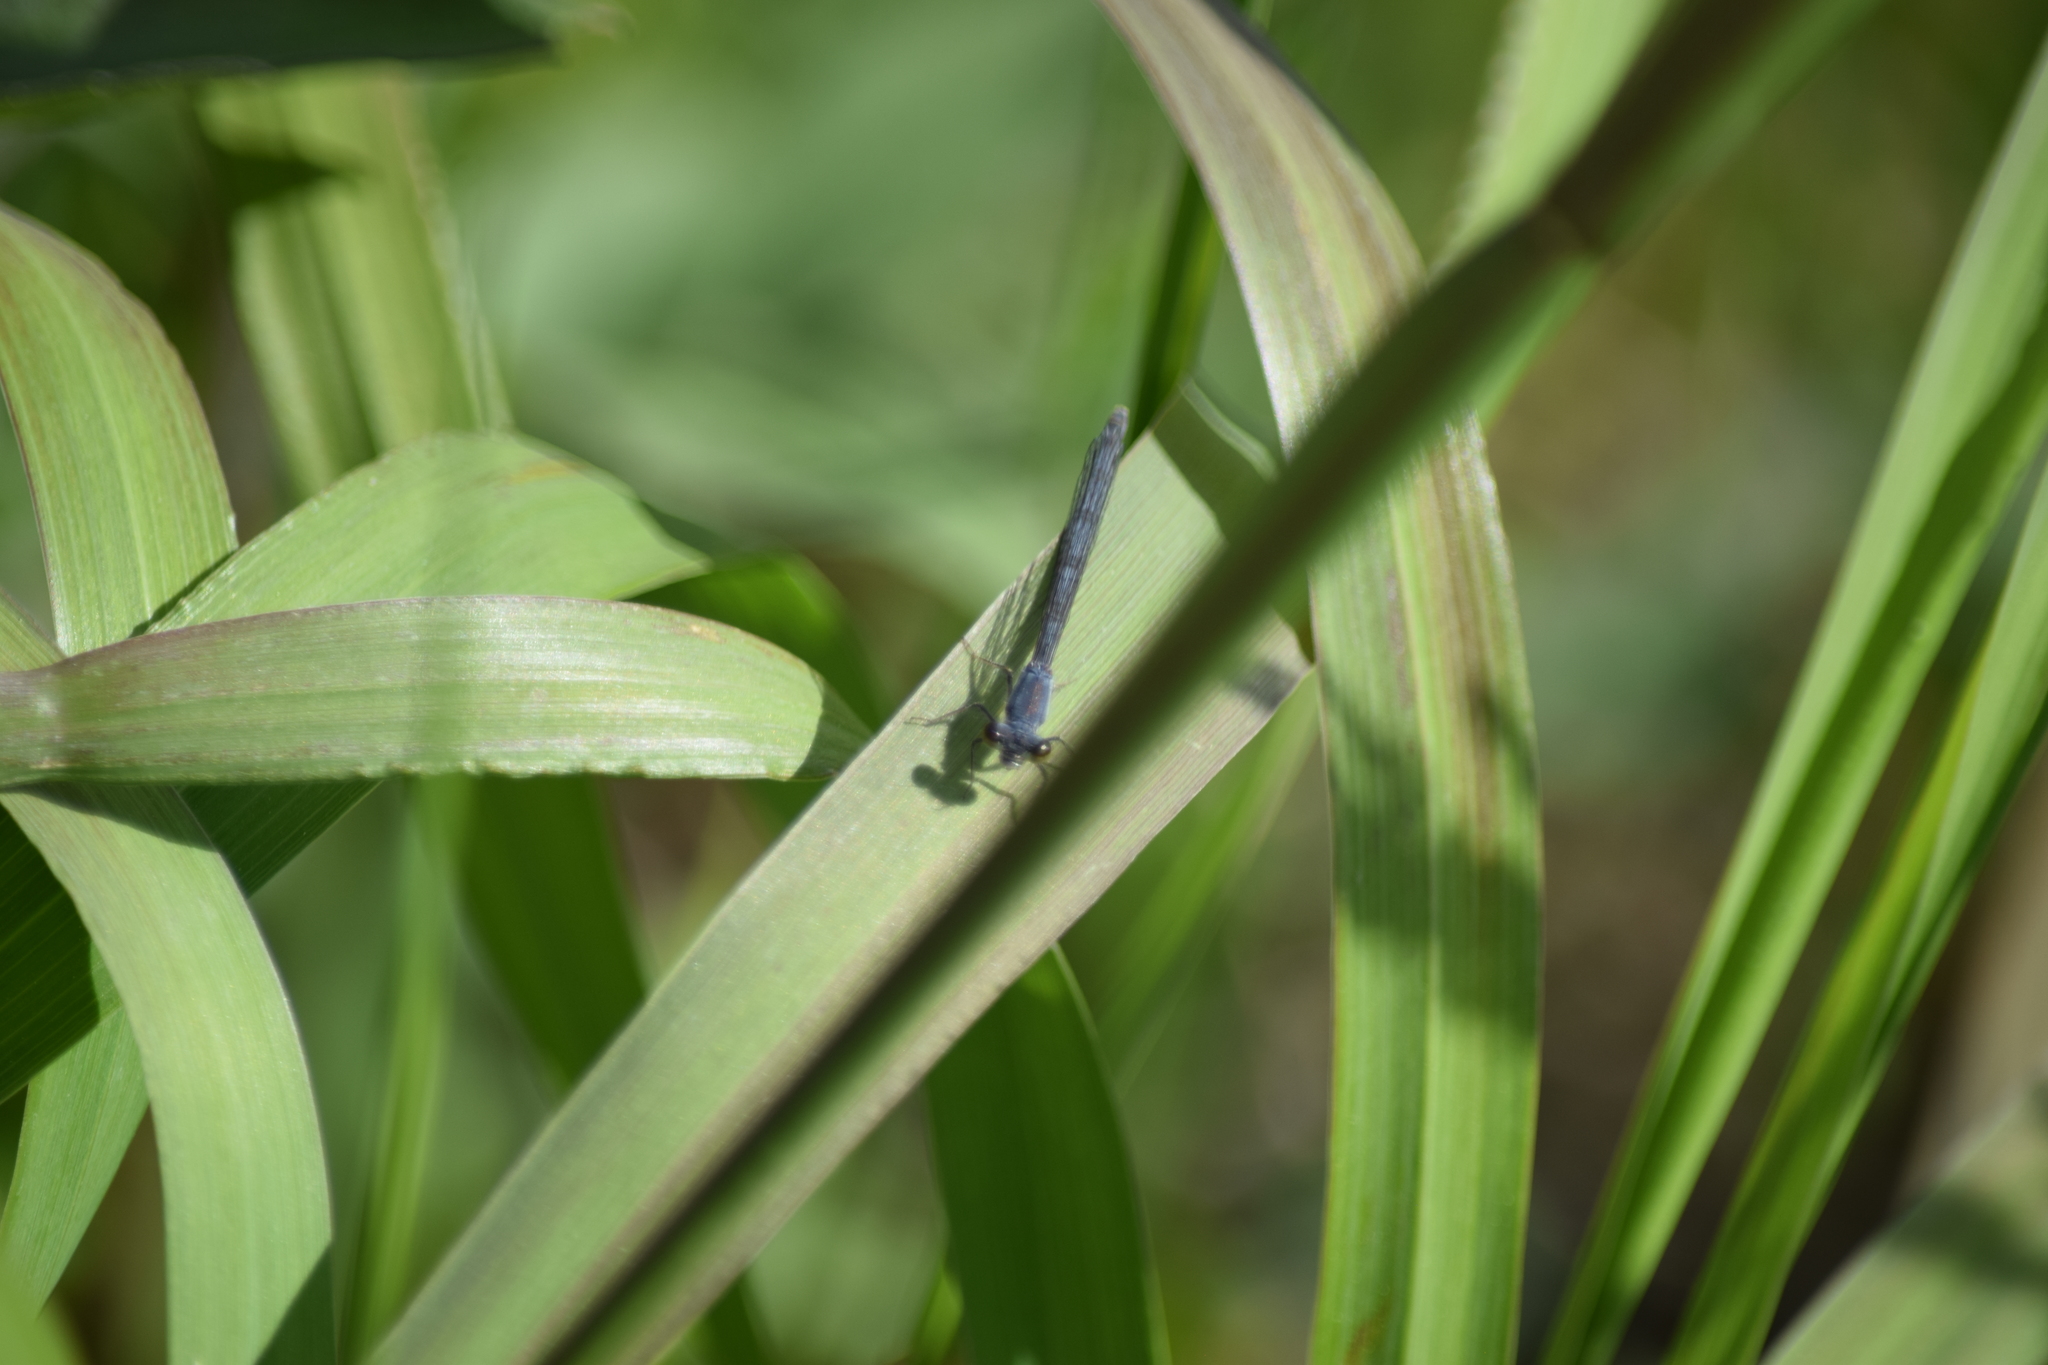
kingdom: Animalia
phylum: Arthropoda
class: Insecta
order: Odonata
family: Coenagrionidae
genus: Ischnura
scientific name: Ischnura posita
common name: Fragile forktail
